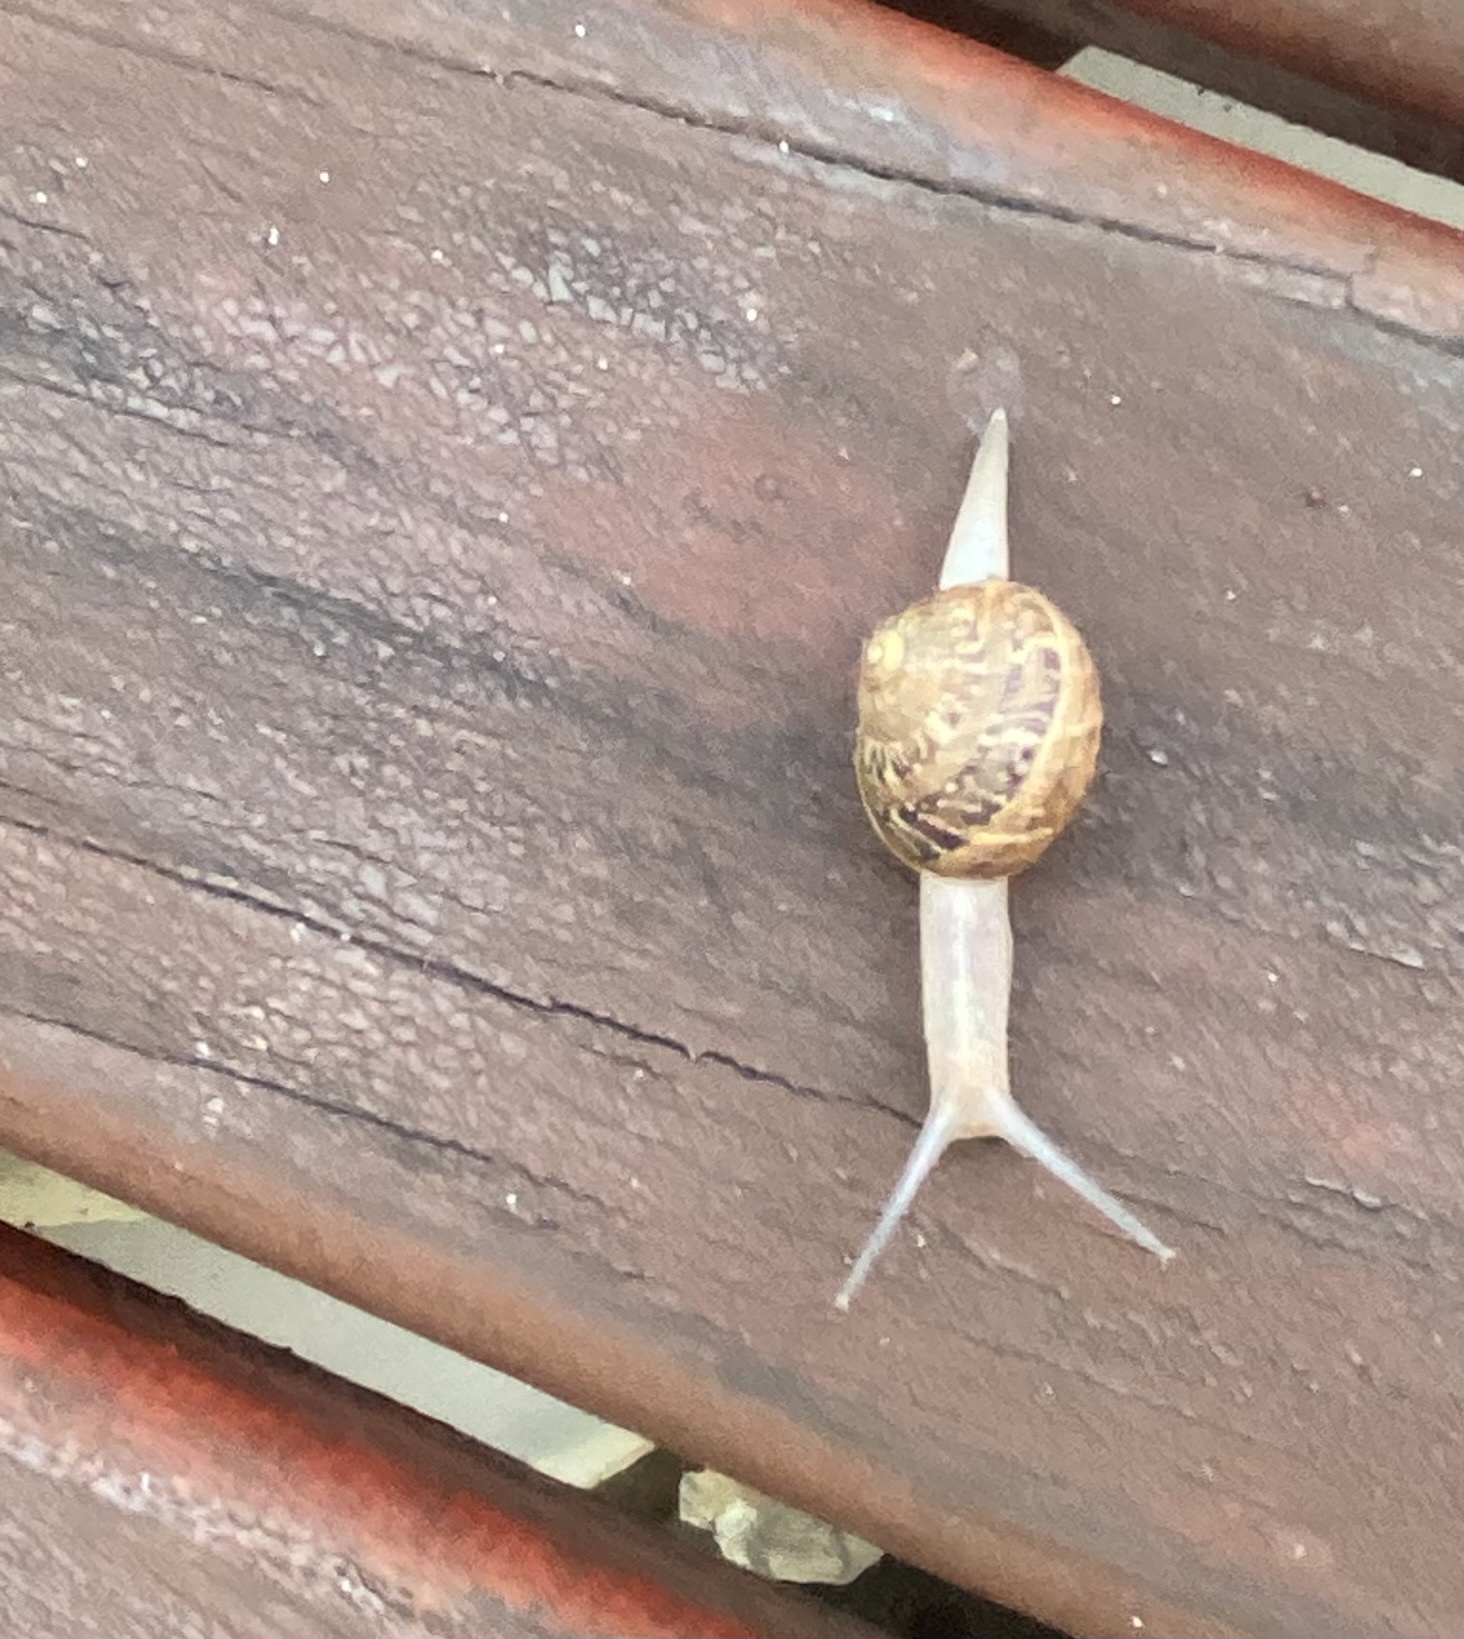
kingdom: Animalia
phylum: Mollusca
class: Gastropoda
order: Stylommatophora
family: Helicidae
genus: Cornu
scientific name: Cornu aspersum
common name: Brown garden snail
